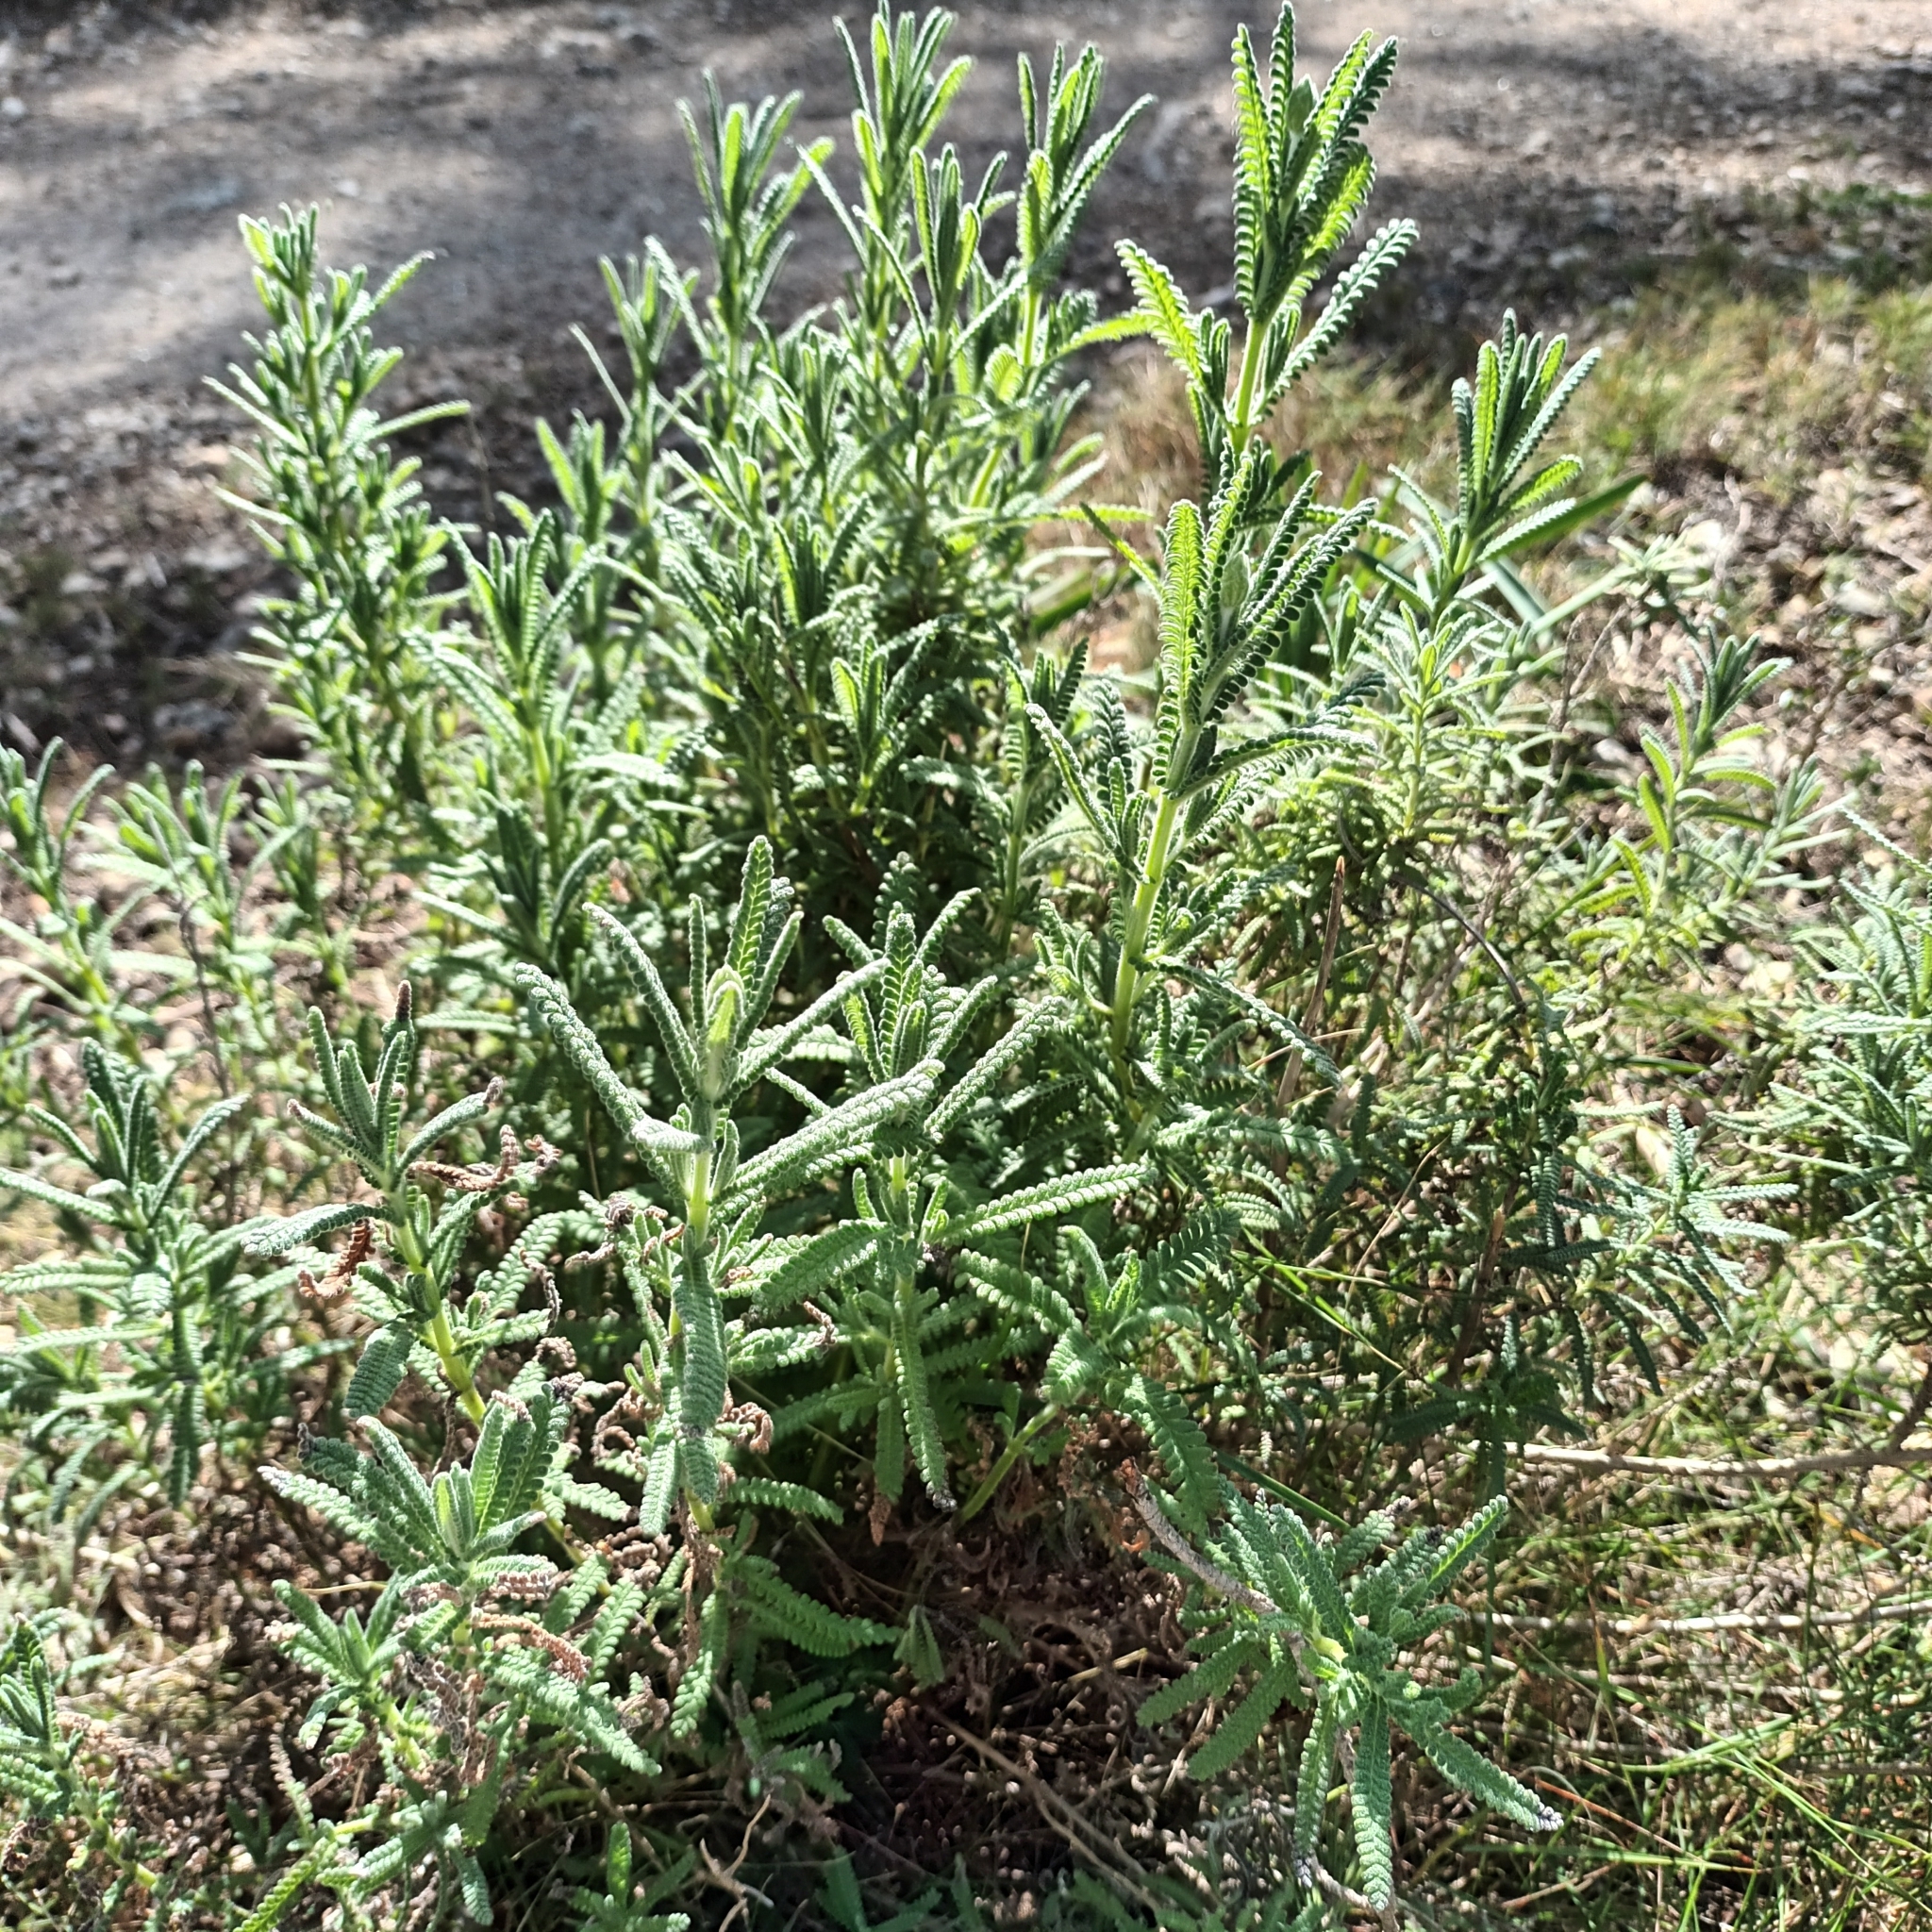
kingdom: Plantae
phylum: Tracheophyta
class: Magnoliopsida
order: Lamiales
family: Lamiaceae
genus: Lavandula
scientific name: Lavandula dentata
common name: French lavender
